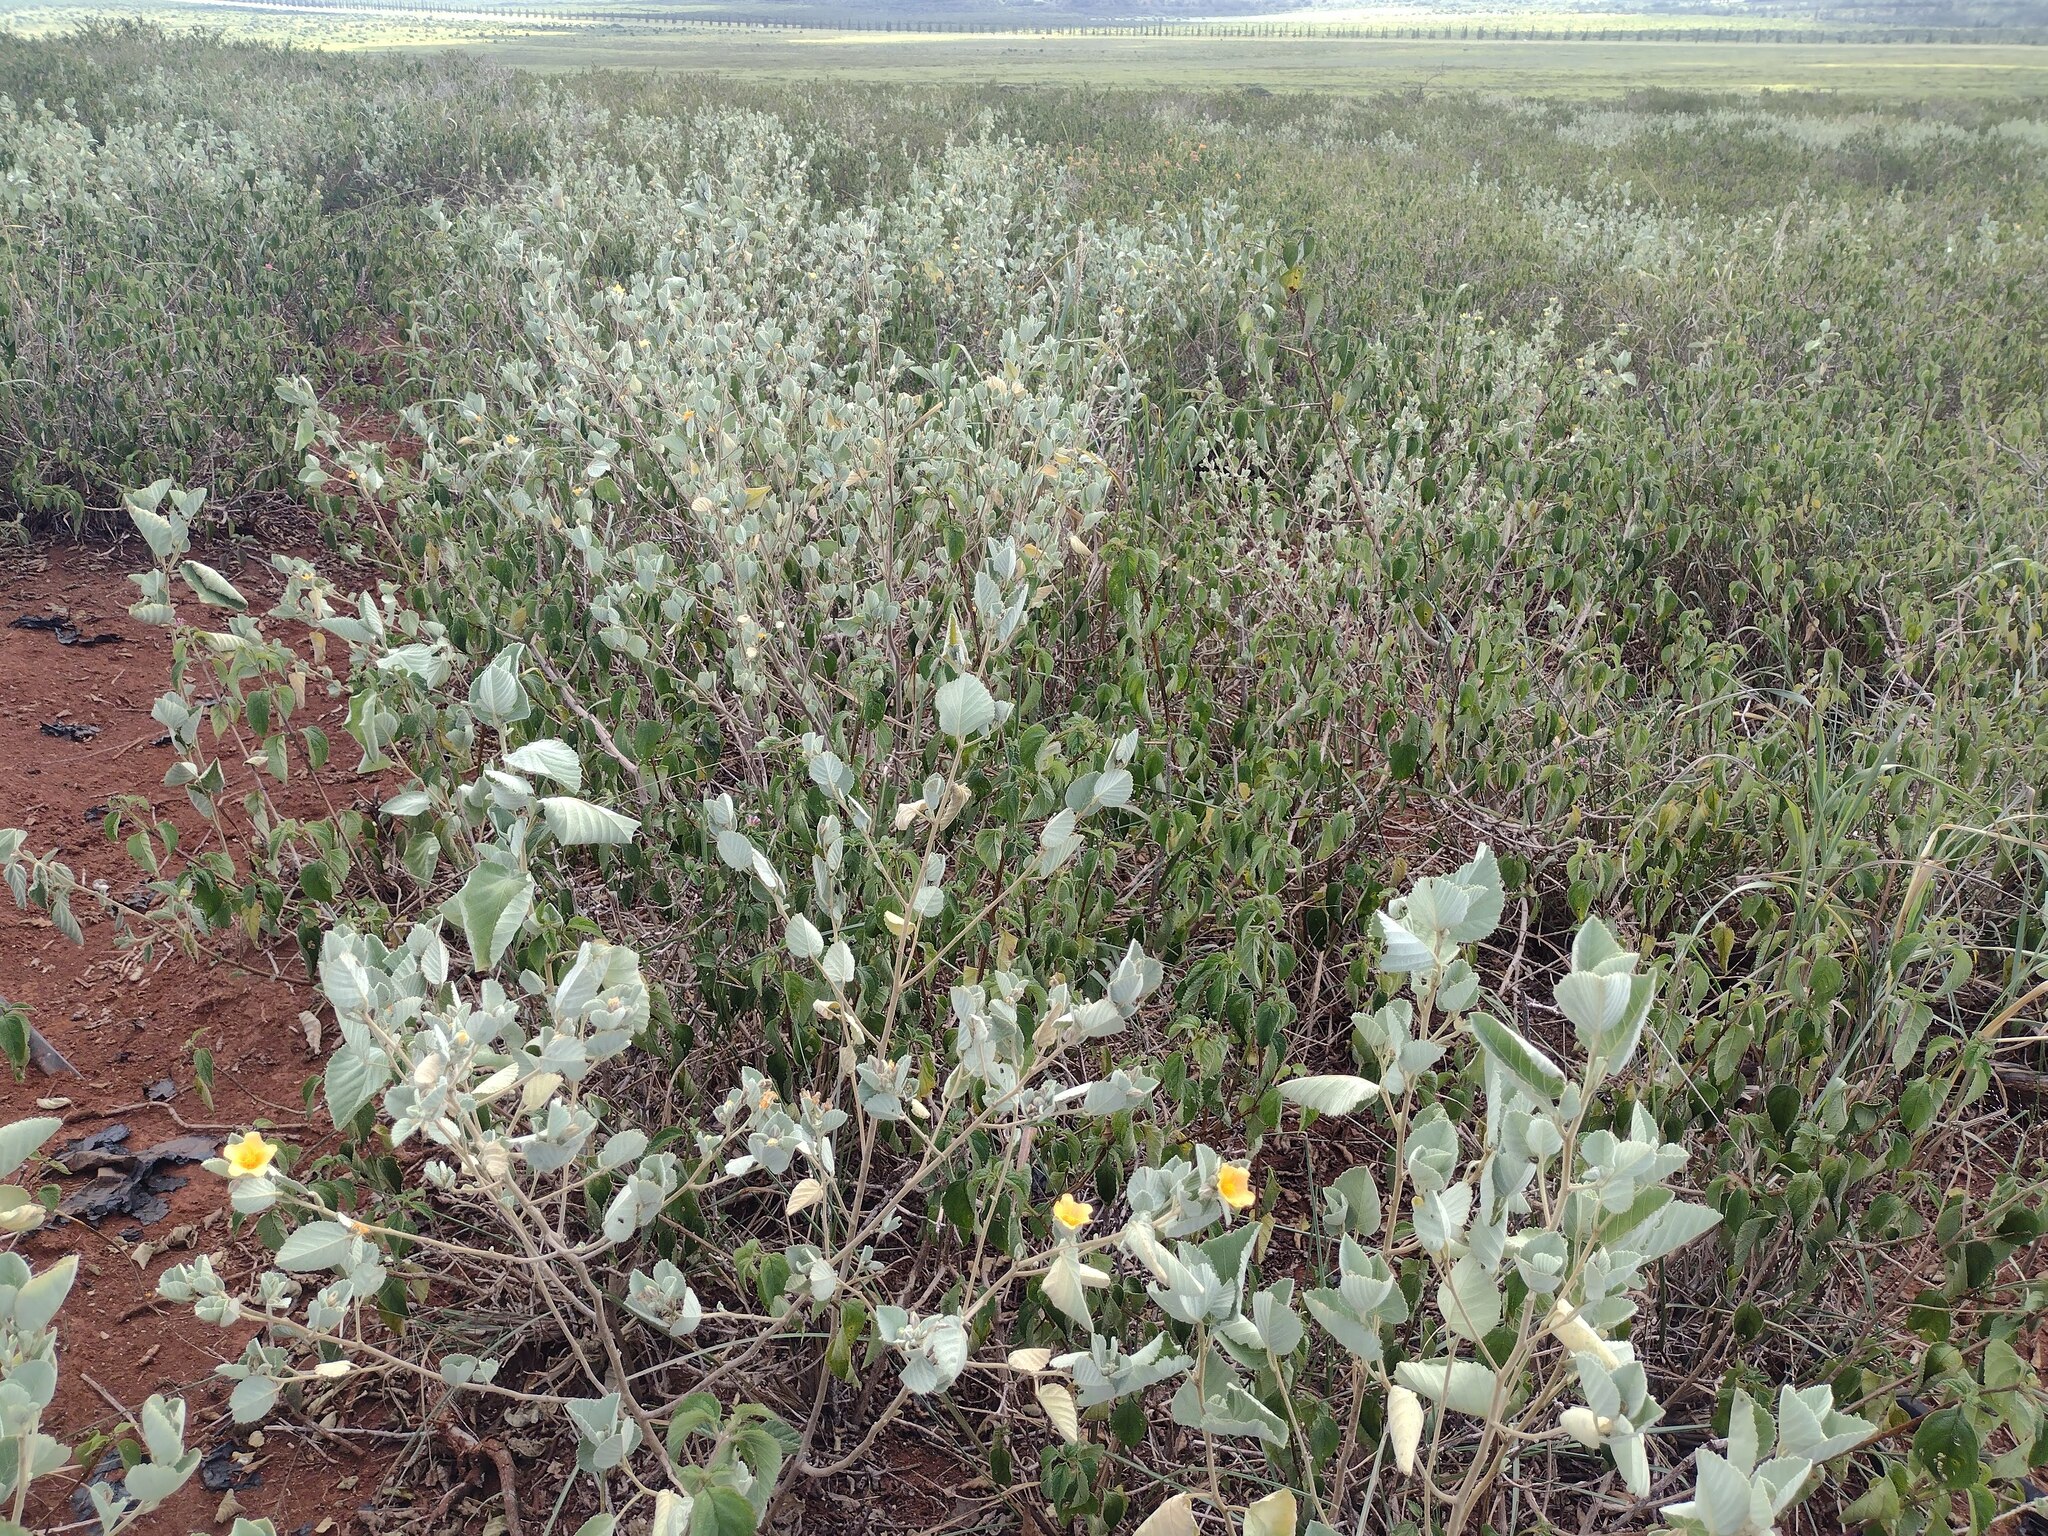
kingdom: Plantae
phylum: Tracheophyta
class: Magnoliopsida
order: Malvales
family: Malvaceae
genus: Sida
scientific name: Sida fallax
